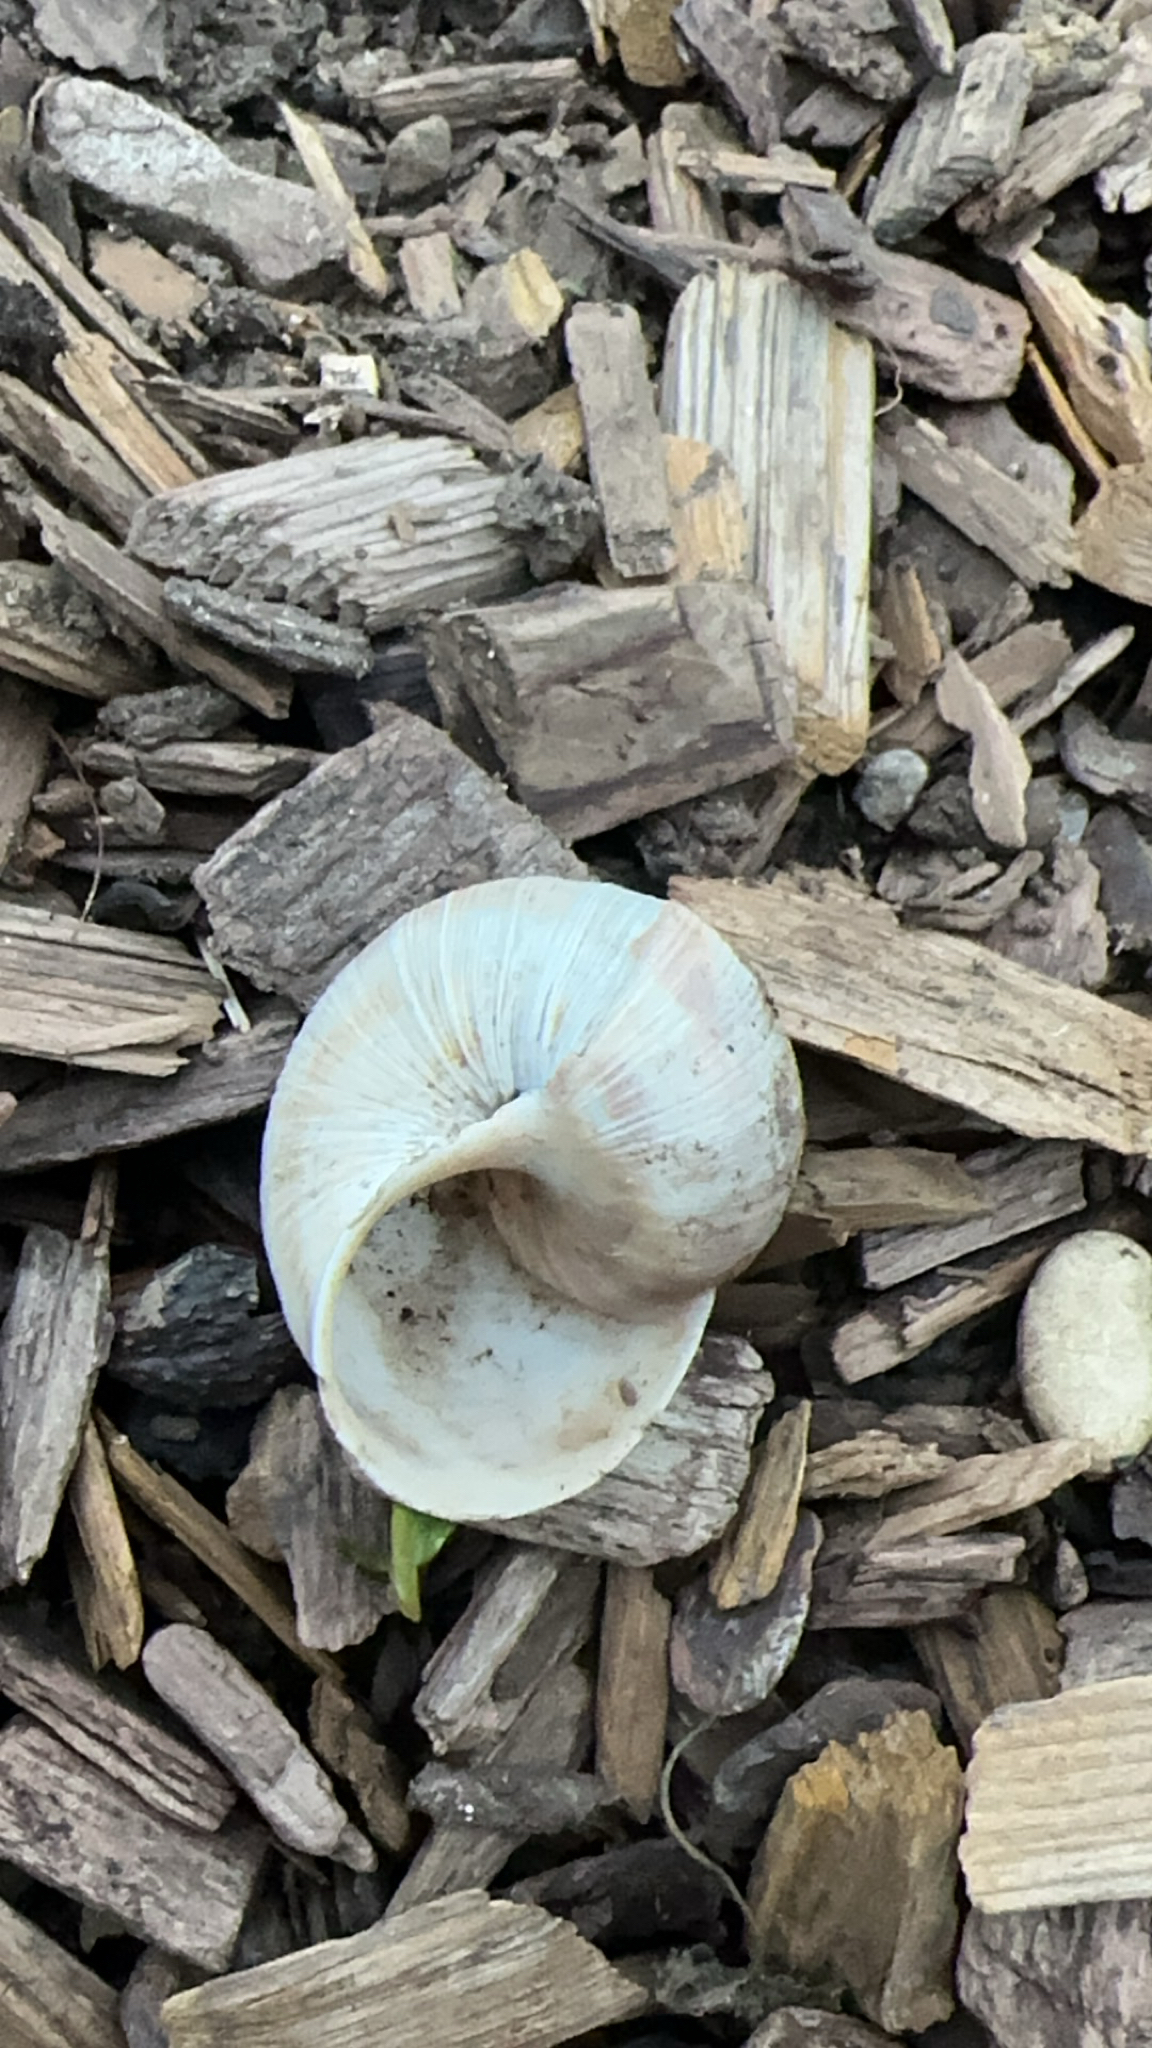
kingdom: Animalia
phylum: Mollusca
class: Gastropoda
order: Stylommatophora
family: Helicidae
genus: Helix
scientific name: Helix pomatia
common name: Roman snail
